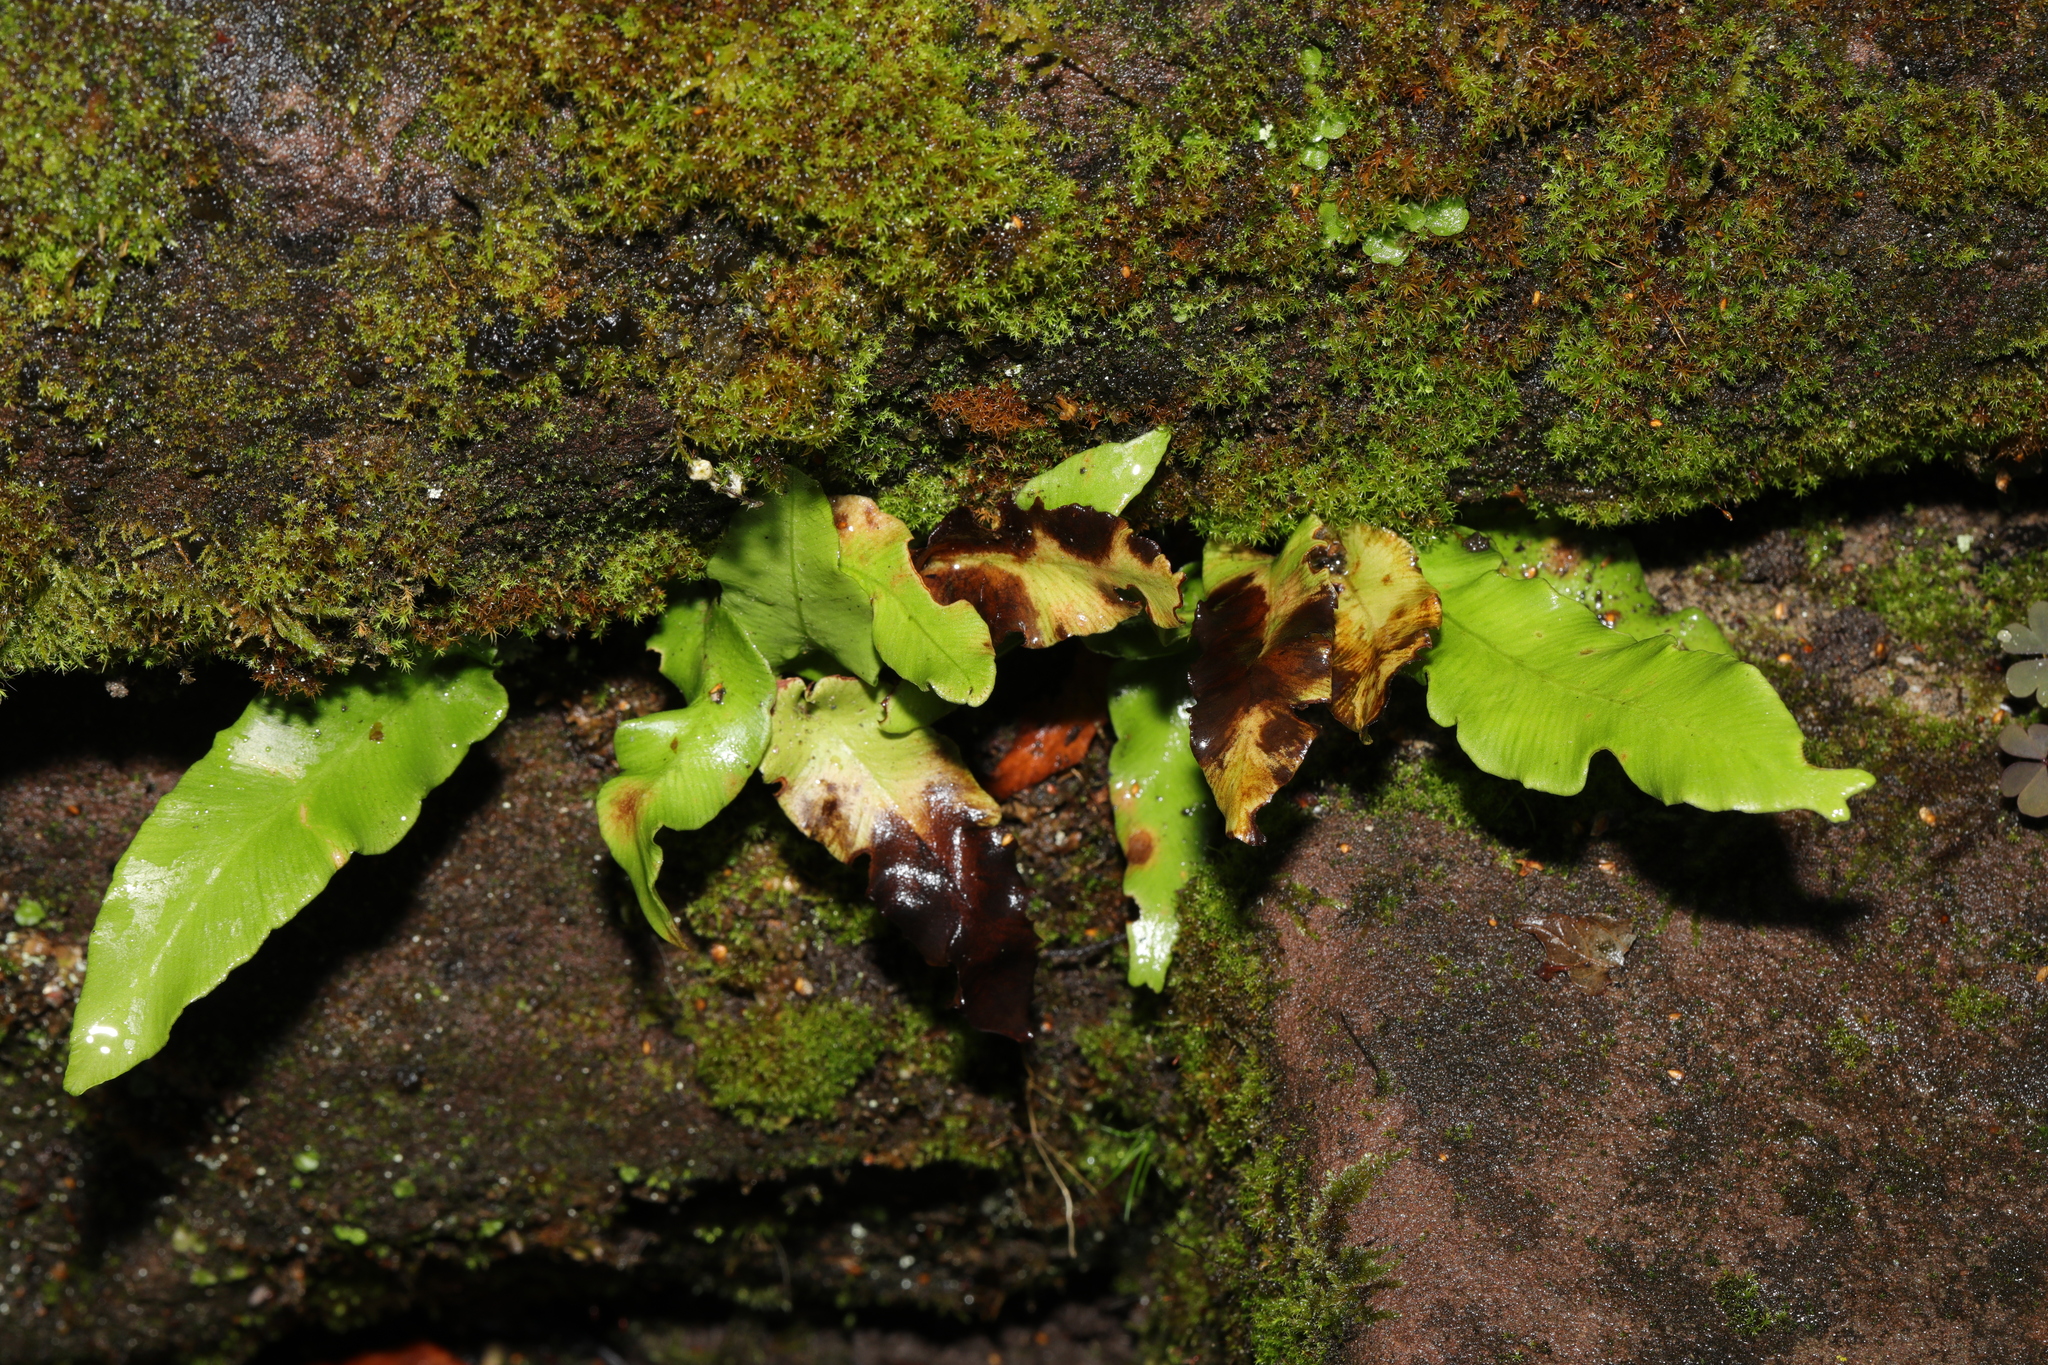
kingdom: Plantae
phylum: Tracheophyta
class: Polypodiopsida
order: Polypodiales
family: Aspleniaceae
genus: Asplenium
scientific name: Asplenium scolopendrium
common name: Hart's-tongue fern
